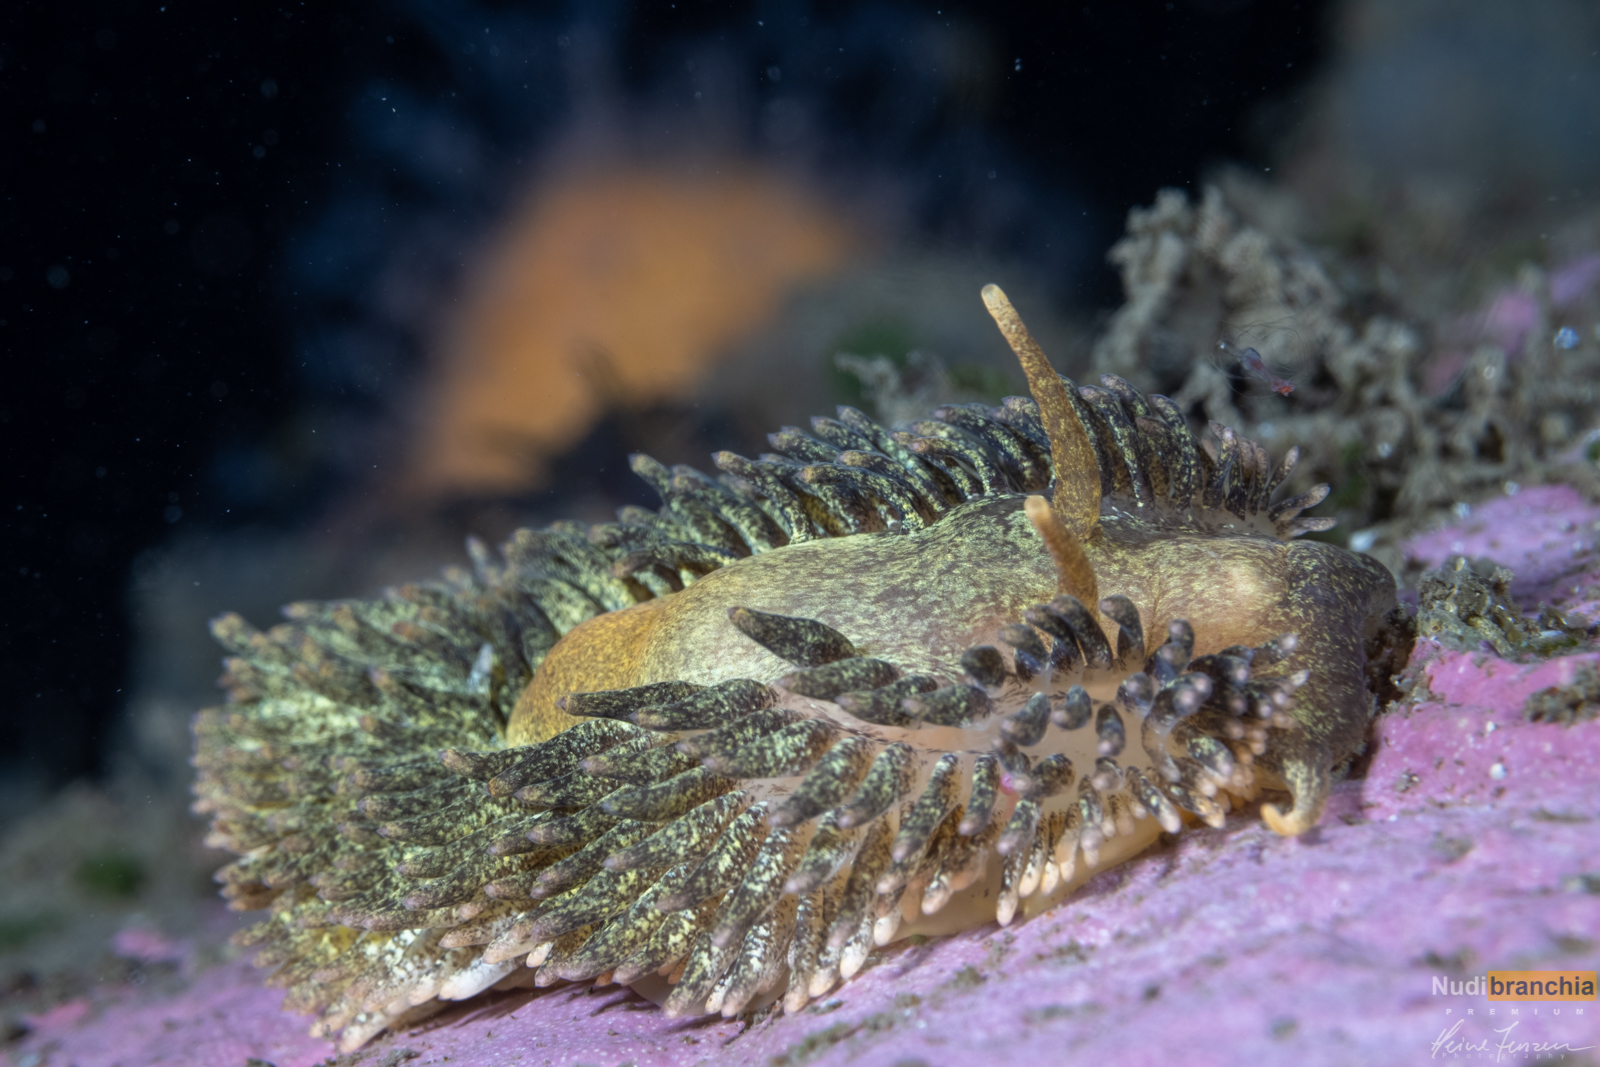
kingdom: Animalia
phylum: Mollusca
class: Gastropoda
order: Nudibranchia
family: Aeolidiidae
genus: Aeolidia
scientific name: Aeolidia papillosa
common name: Common grey sea slug
